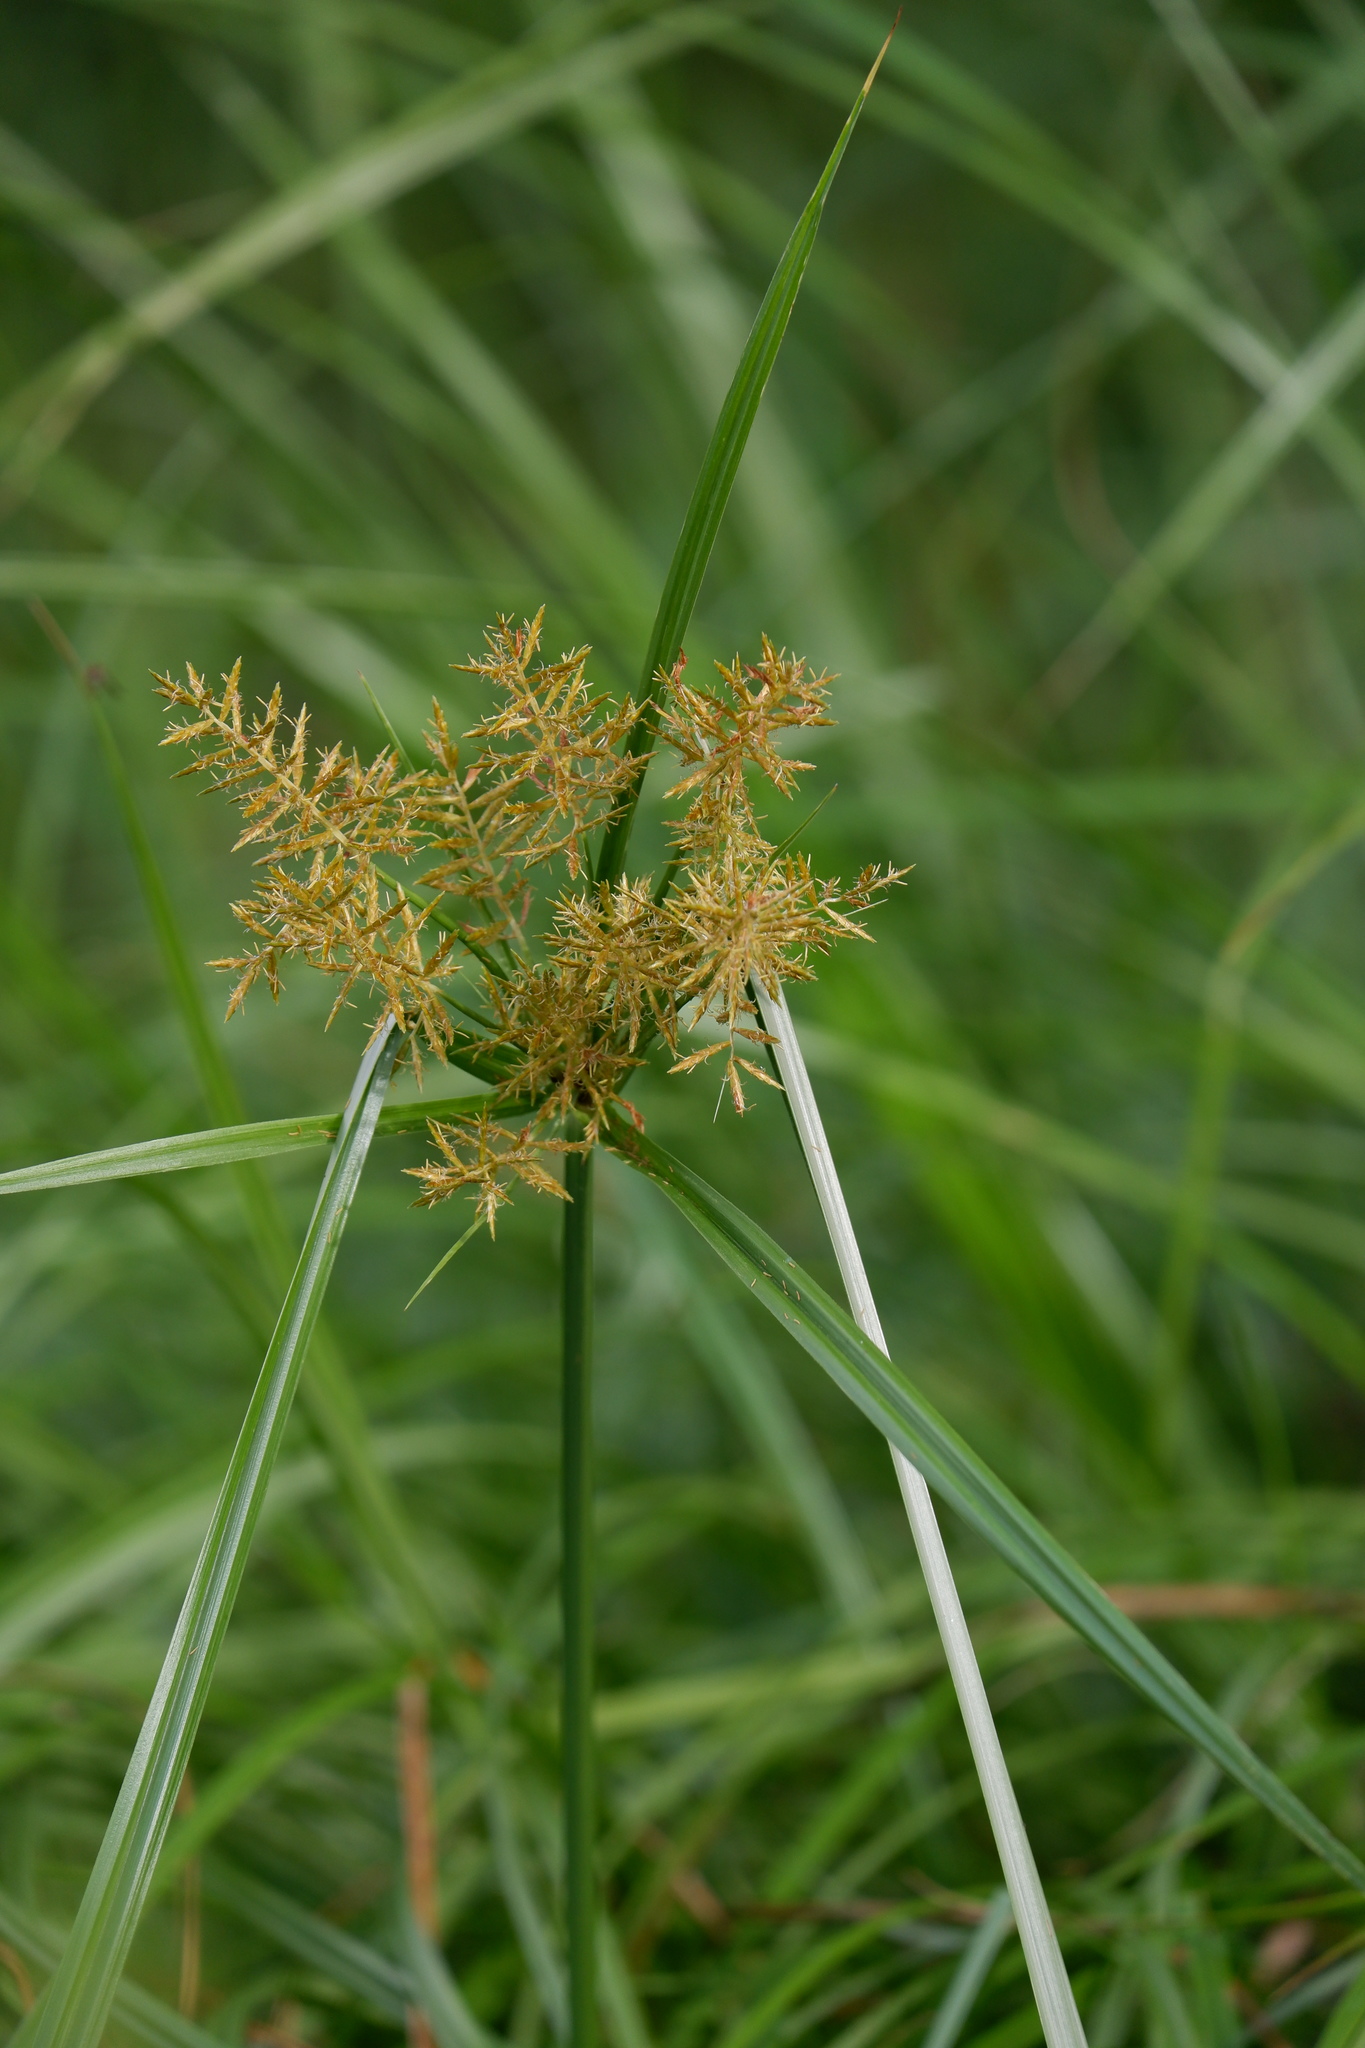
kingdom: Plantae
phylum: Tracheophyta
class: Liliopsida
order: Poales
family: Cyperaceae
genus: Cyperus
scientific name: Cyperus esculentus
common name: Yellow nutsedge
